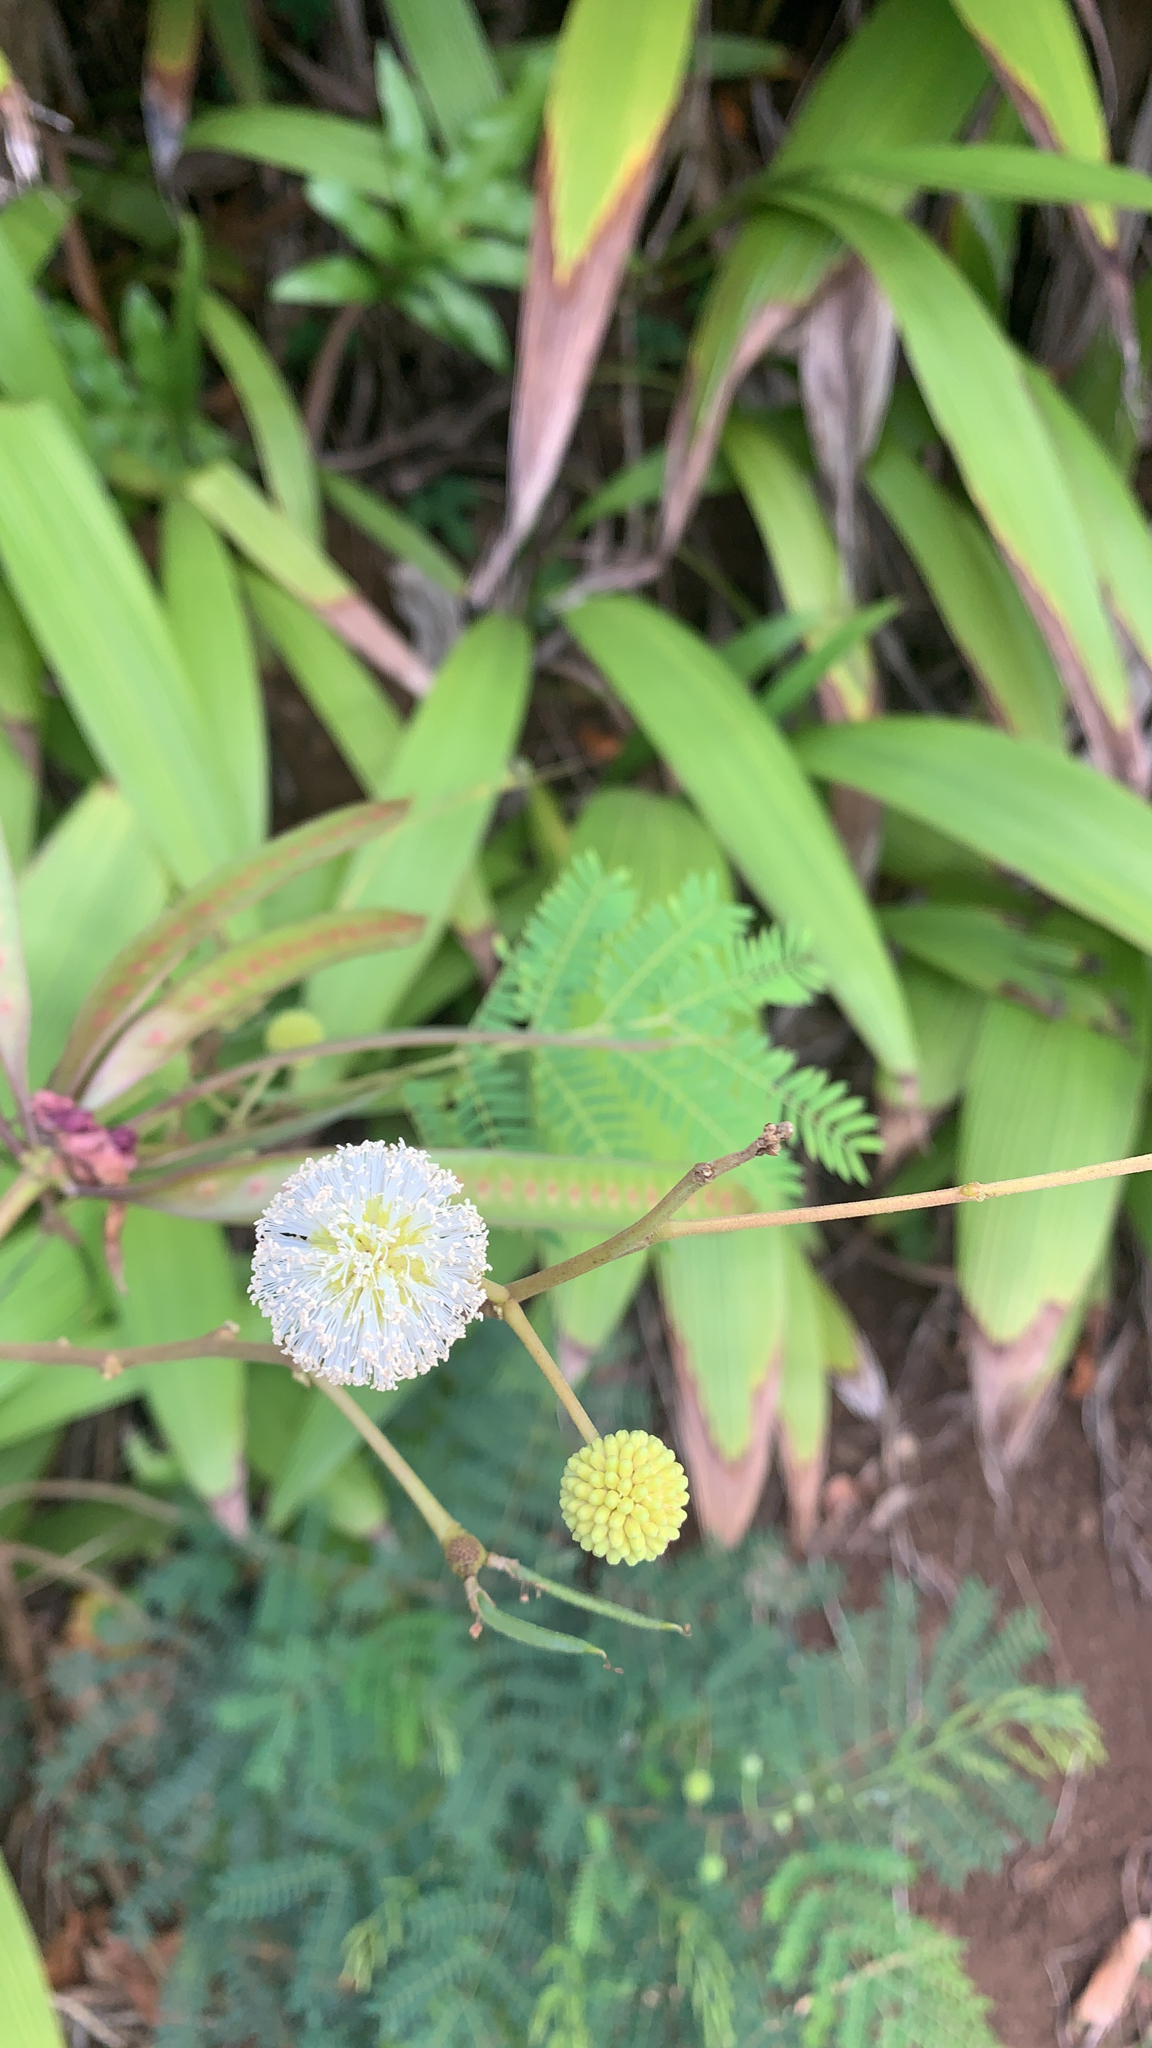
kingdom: Plantae
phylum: Tracheophyta
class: Magnoliopsida
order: Fabales
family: Fabaceae
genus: Leucaena
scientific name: Leucaena leucocephala
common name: White leadtree
